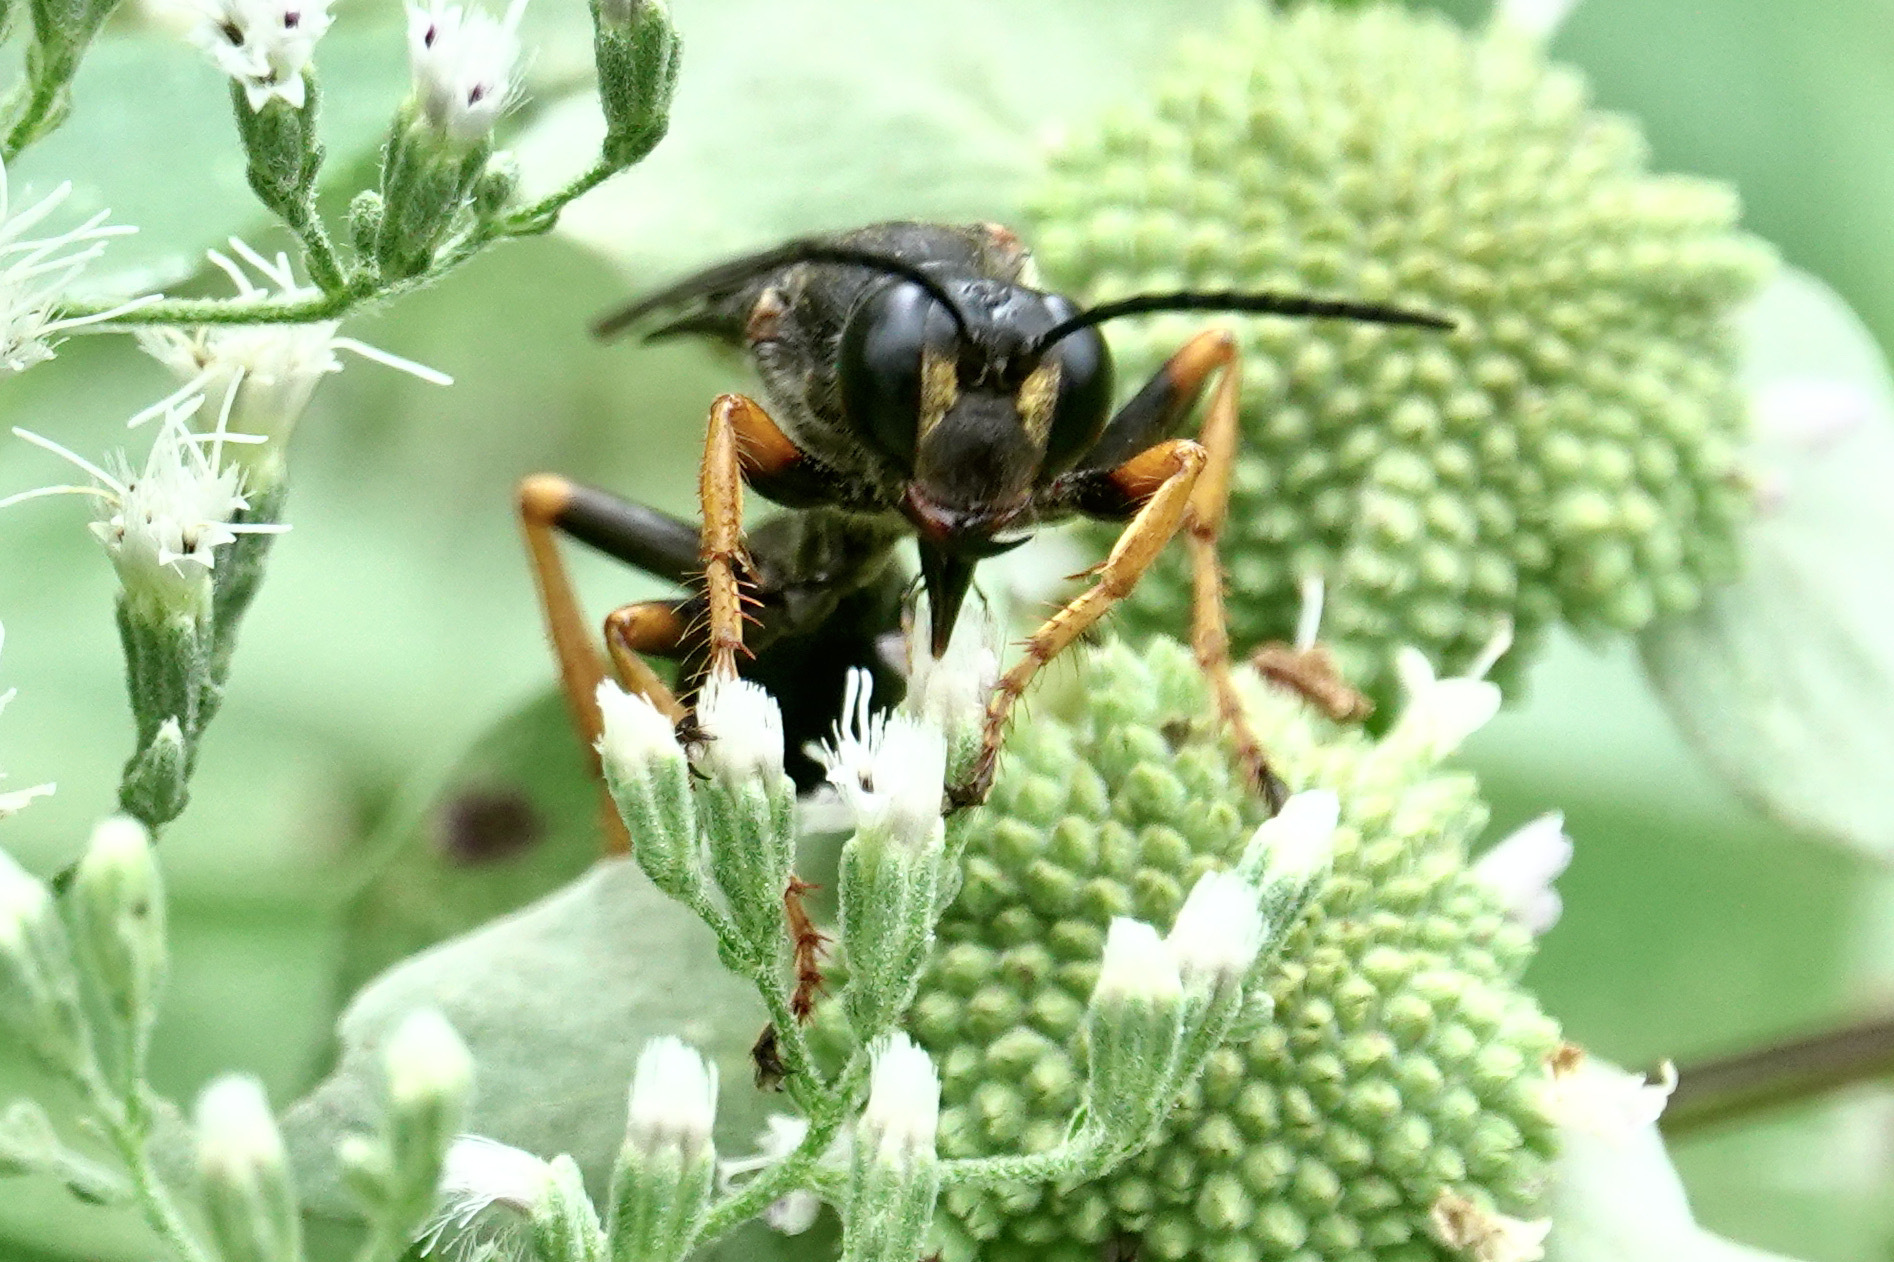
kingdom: Animalia
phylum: Arthropoda
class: Insecta
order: Hymenoptera
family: Sphecidae
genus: Sphex
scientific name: Sphex nudus
